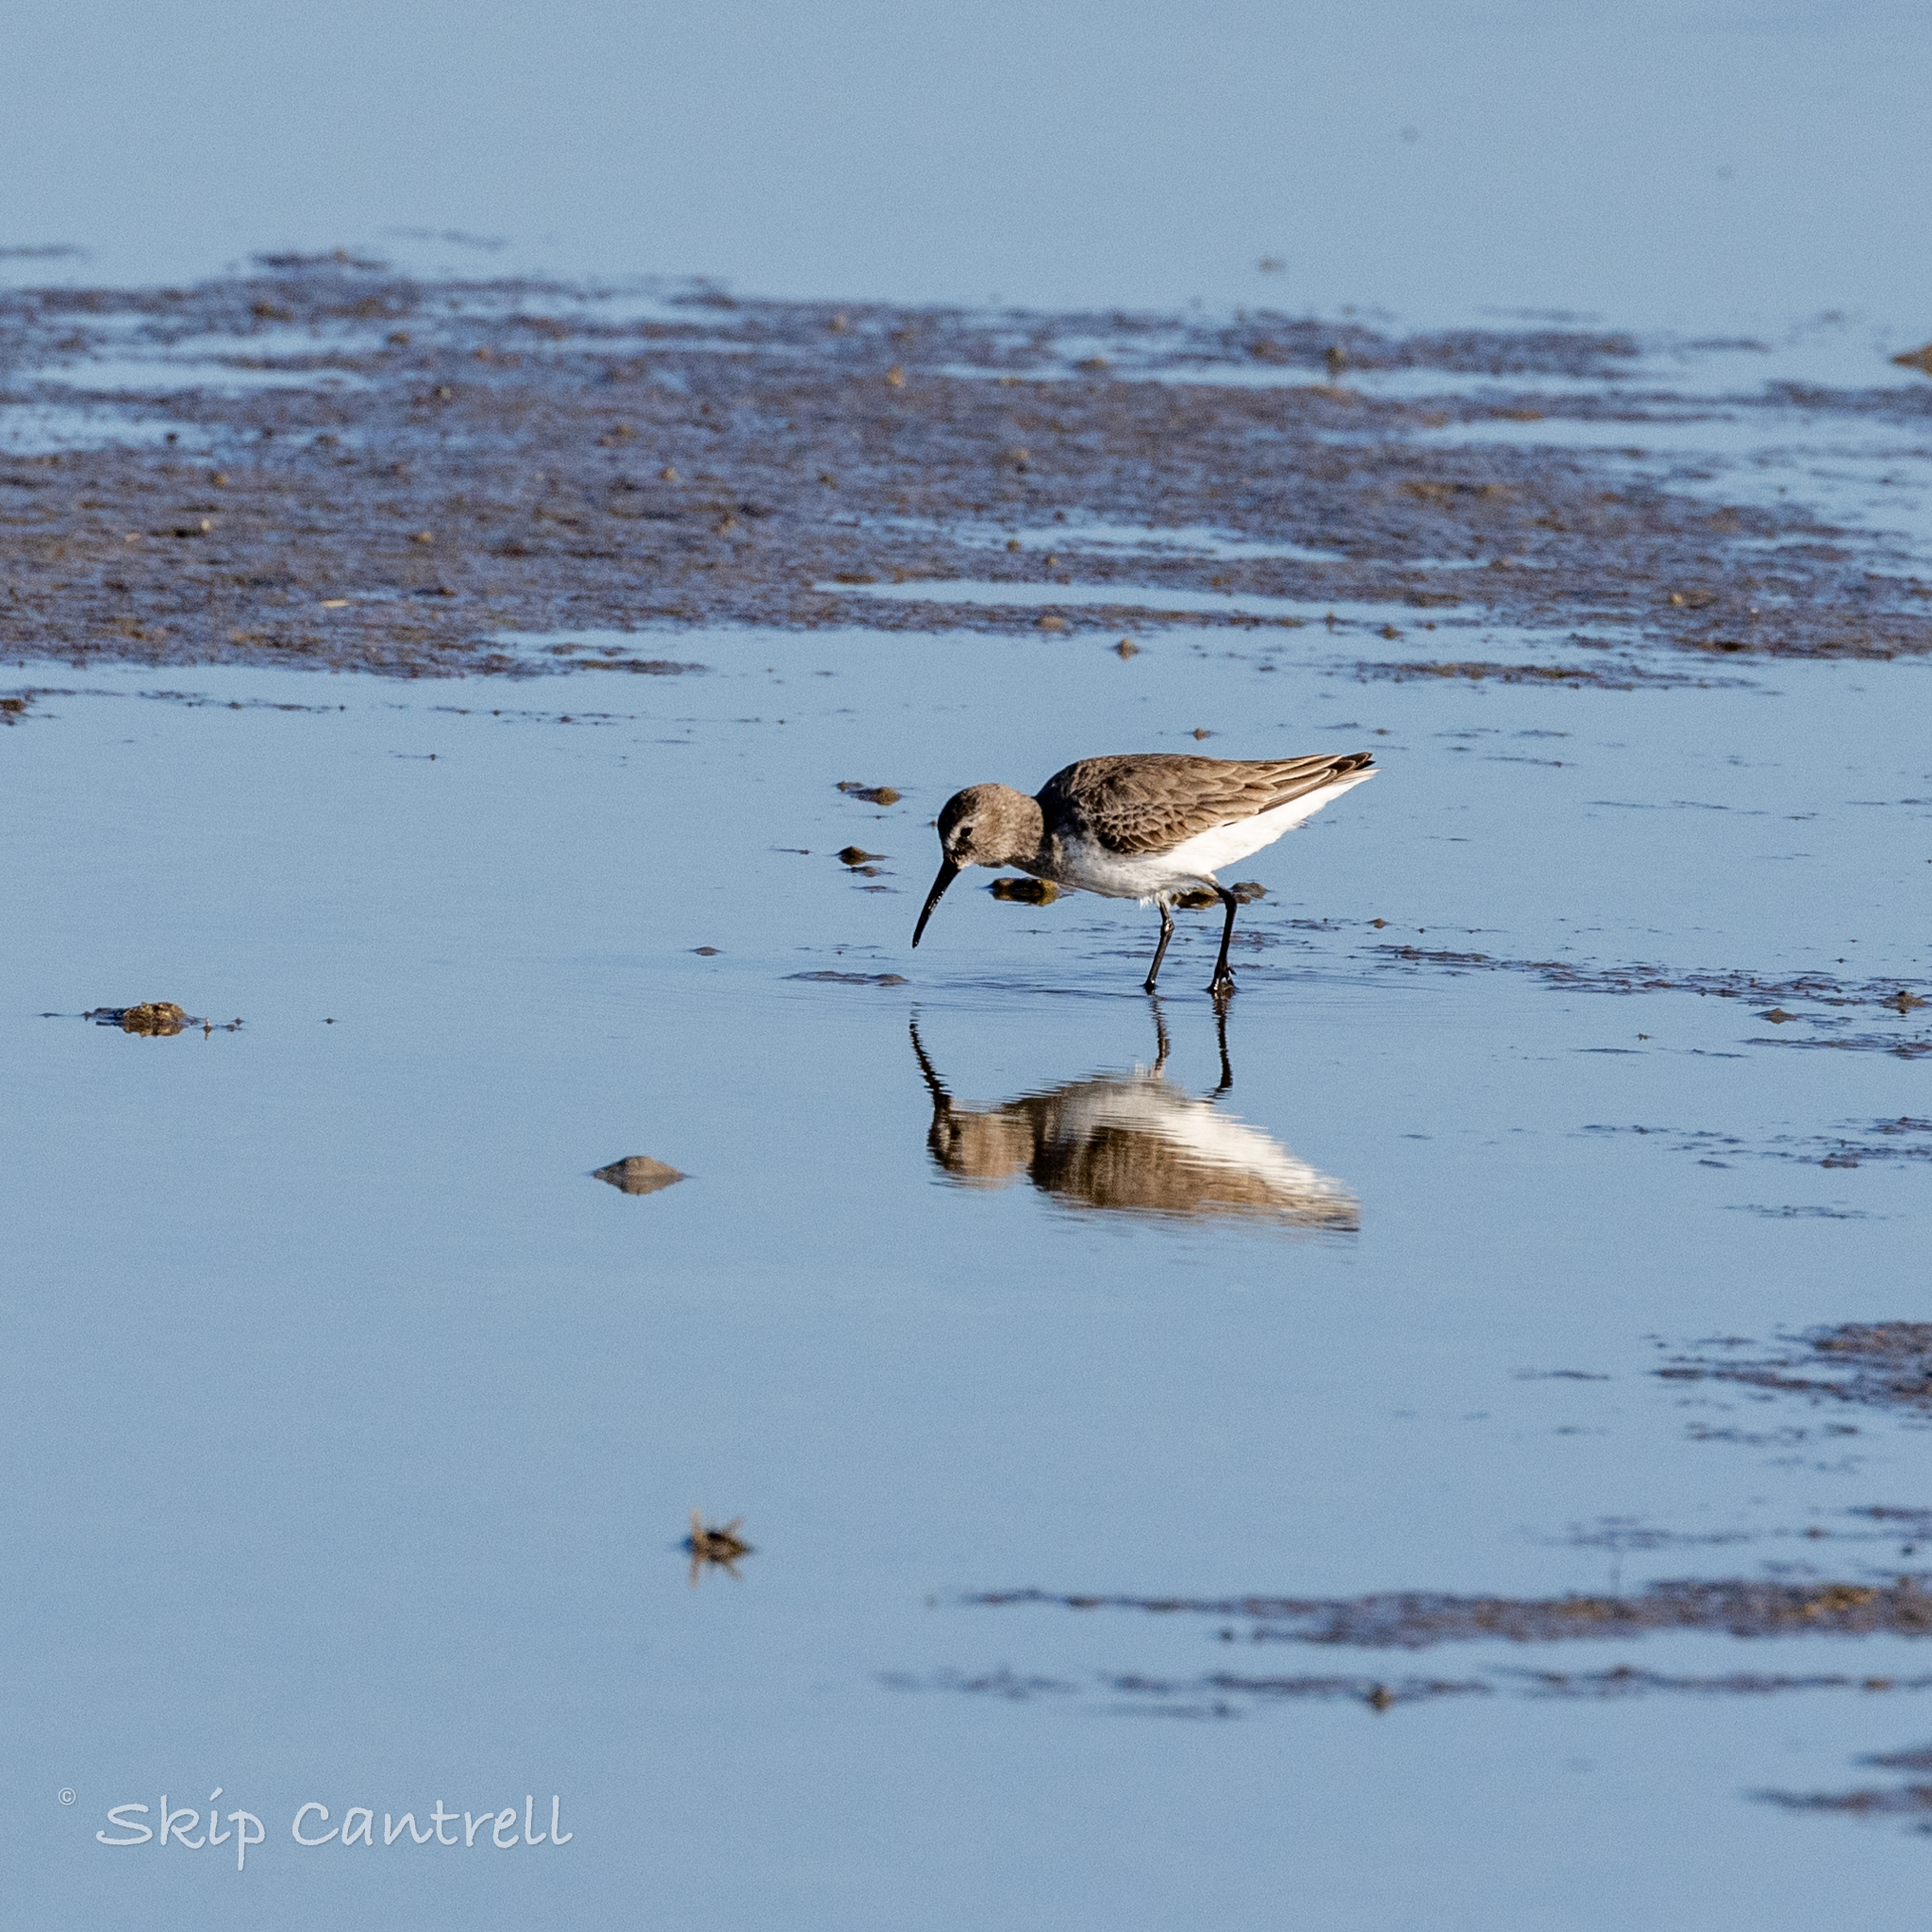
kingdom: Animalia
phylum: Chordata
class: Aves
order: Charadriiformes
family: Scolopacidae
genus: Calidris
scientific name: Calidris alpina
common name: Dunlin
